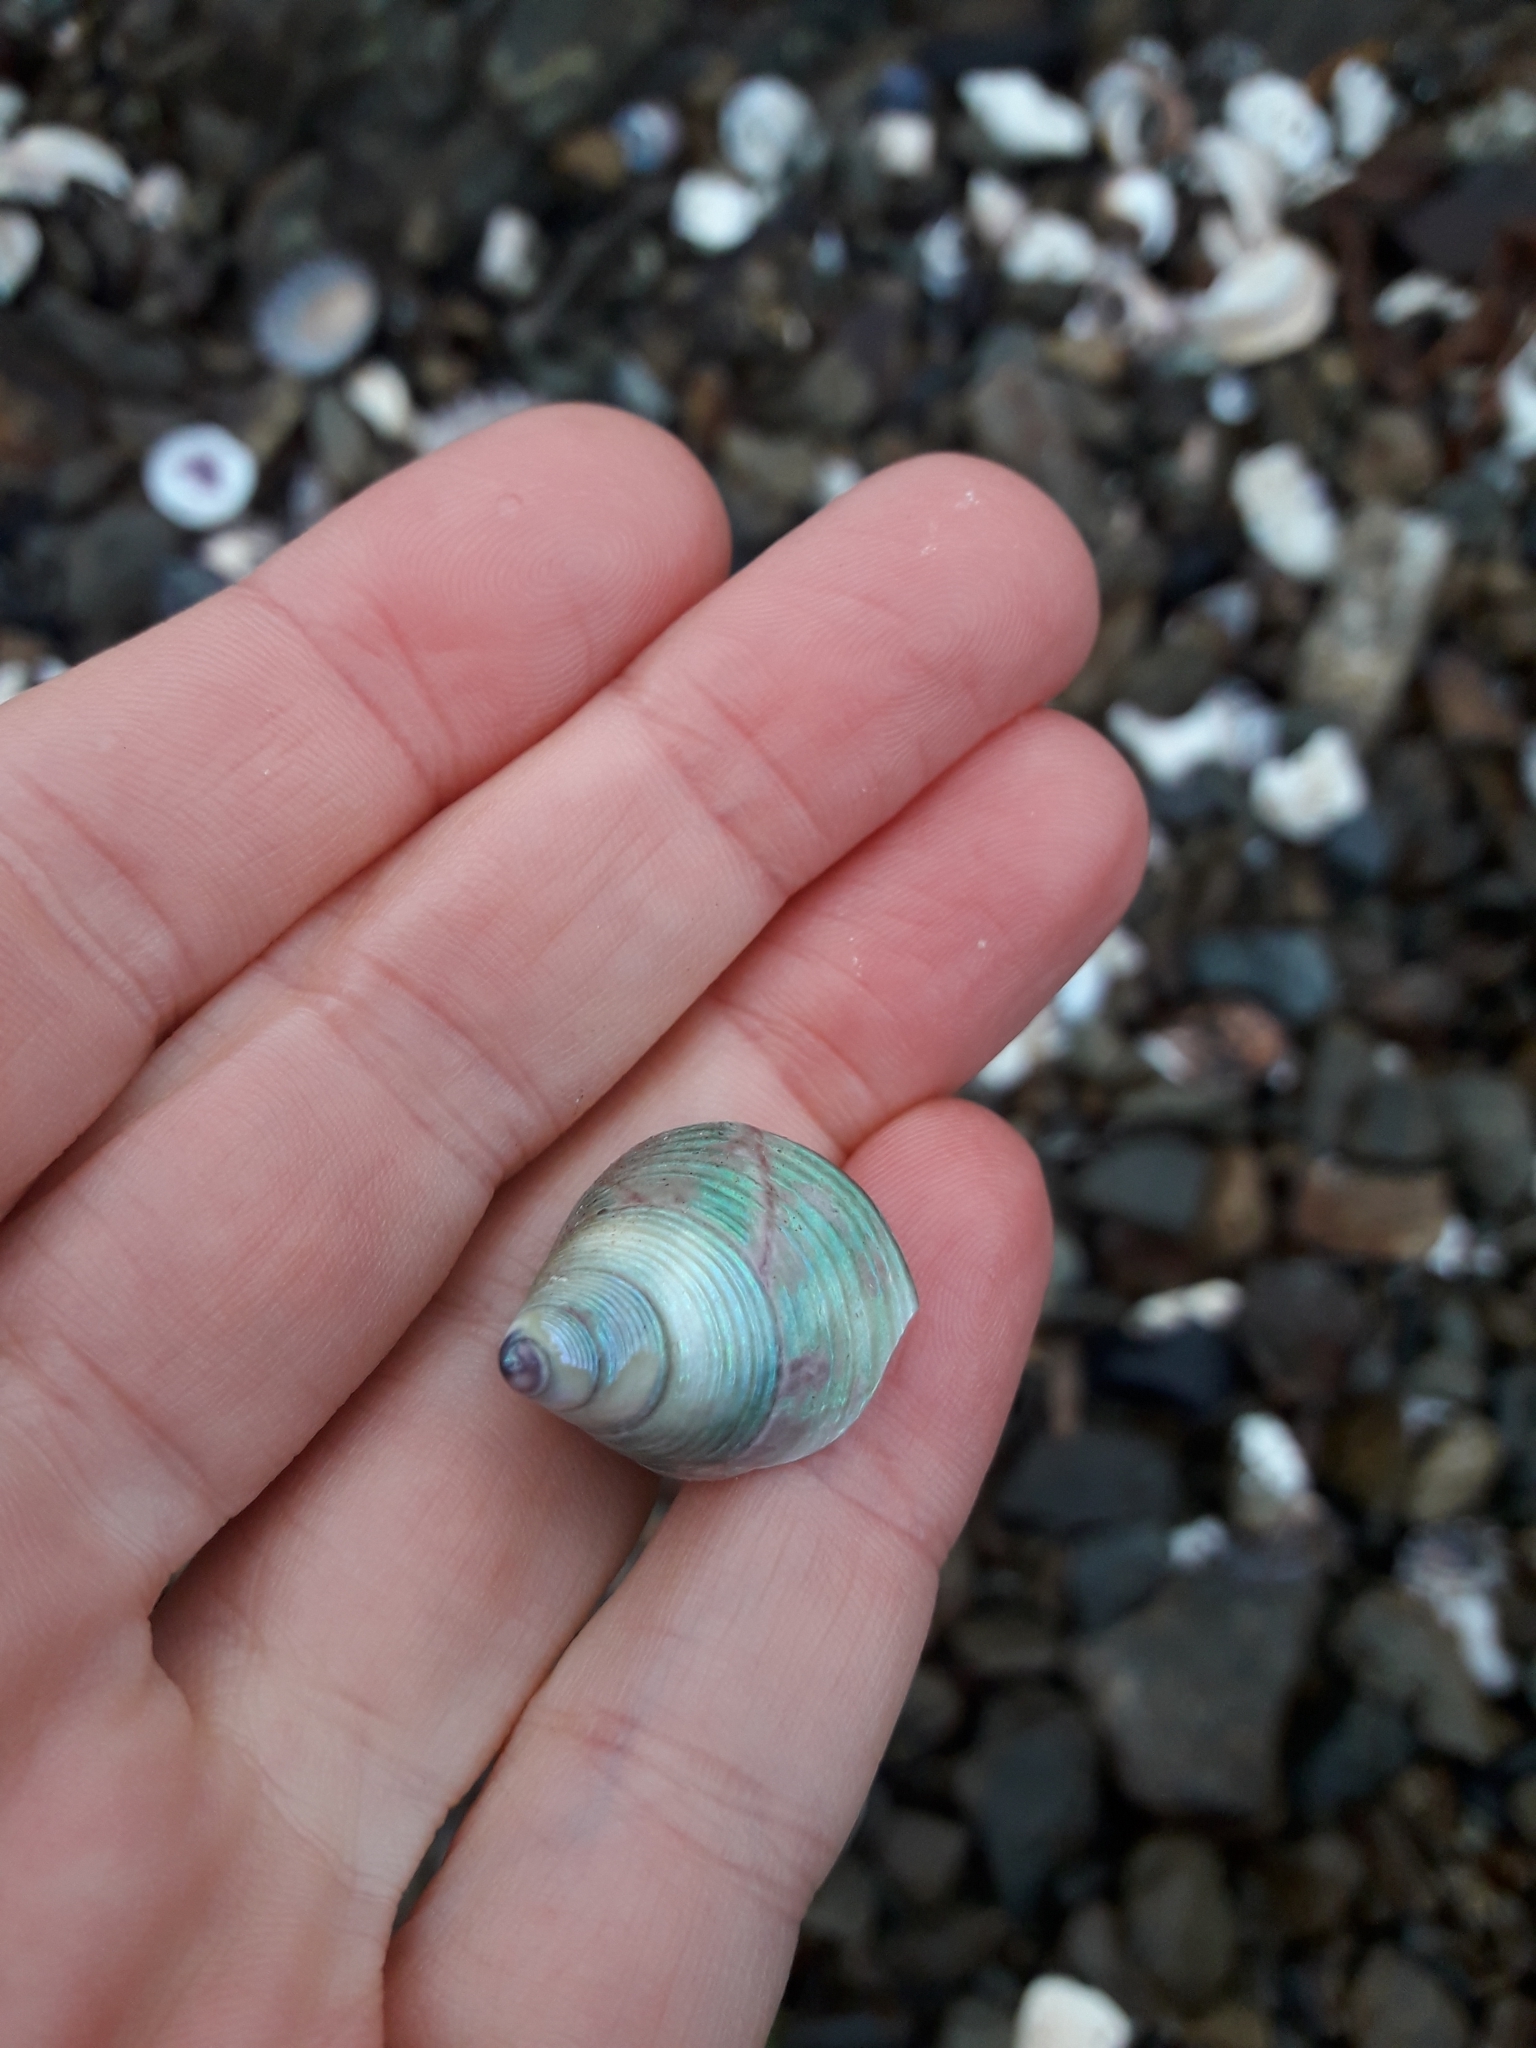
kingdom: Animalia
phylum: Mollusca
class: Gastropoda
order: Trochida
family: Trochidae
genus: Cantharidus
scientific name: Cantharidus opalus
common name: Opal jewel topsnail
